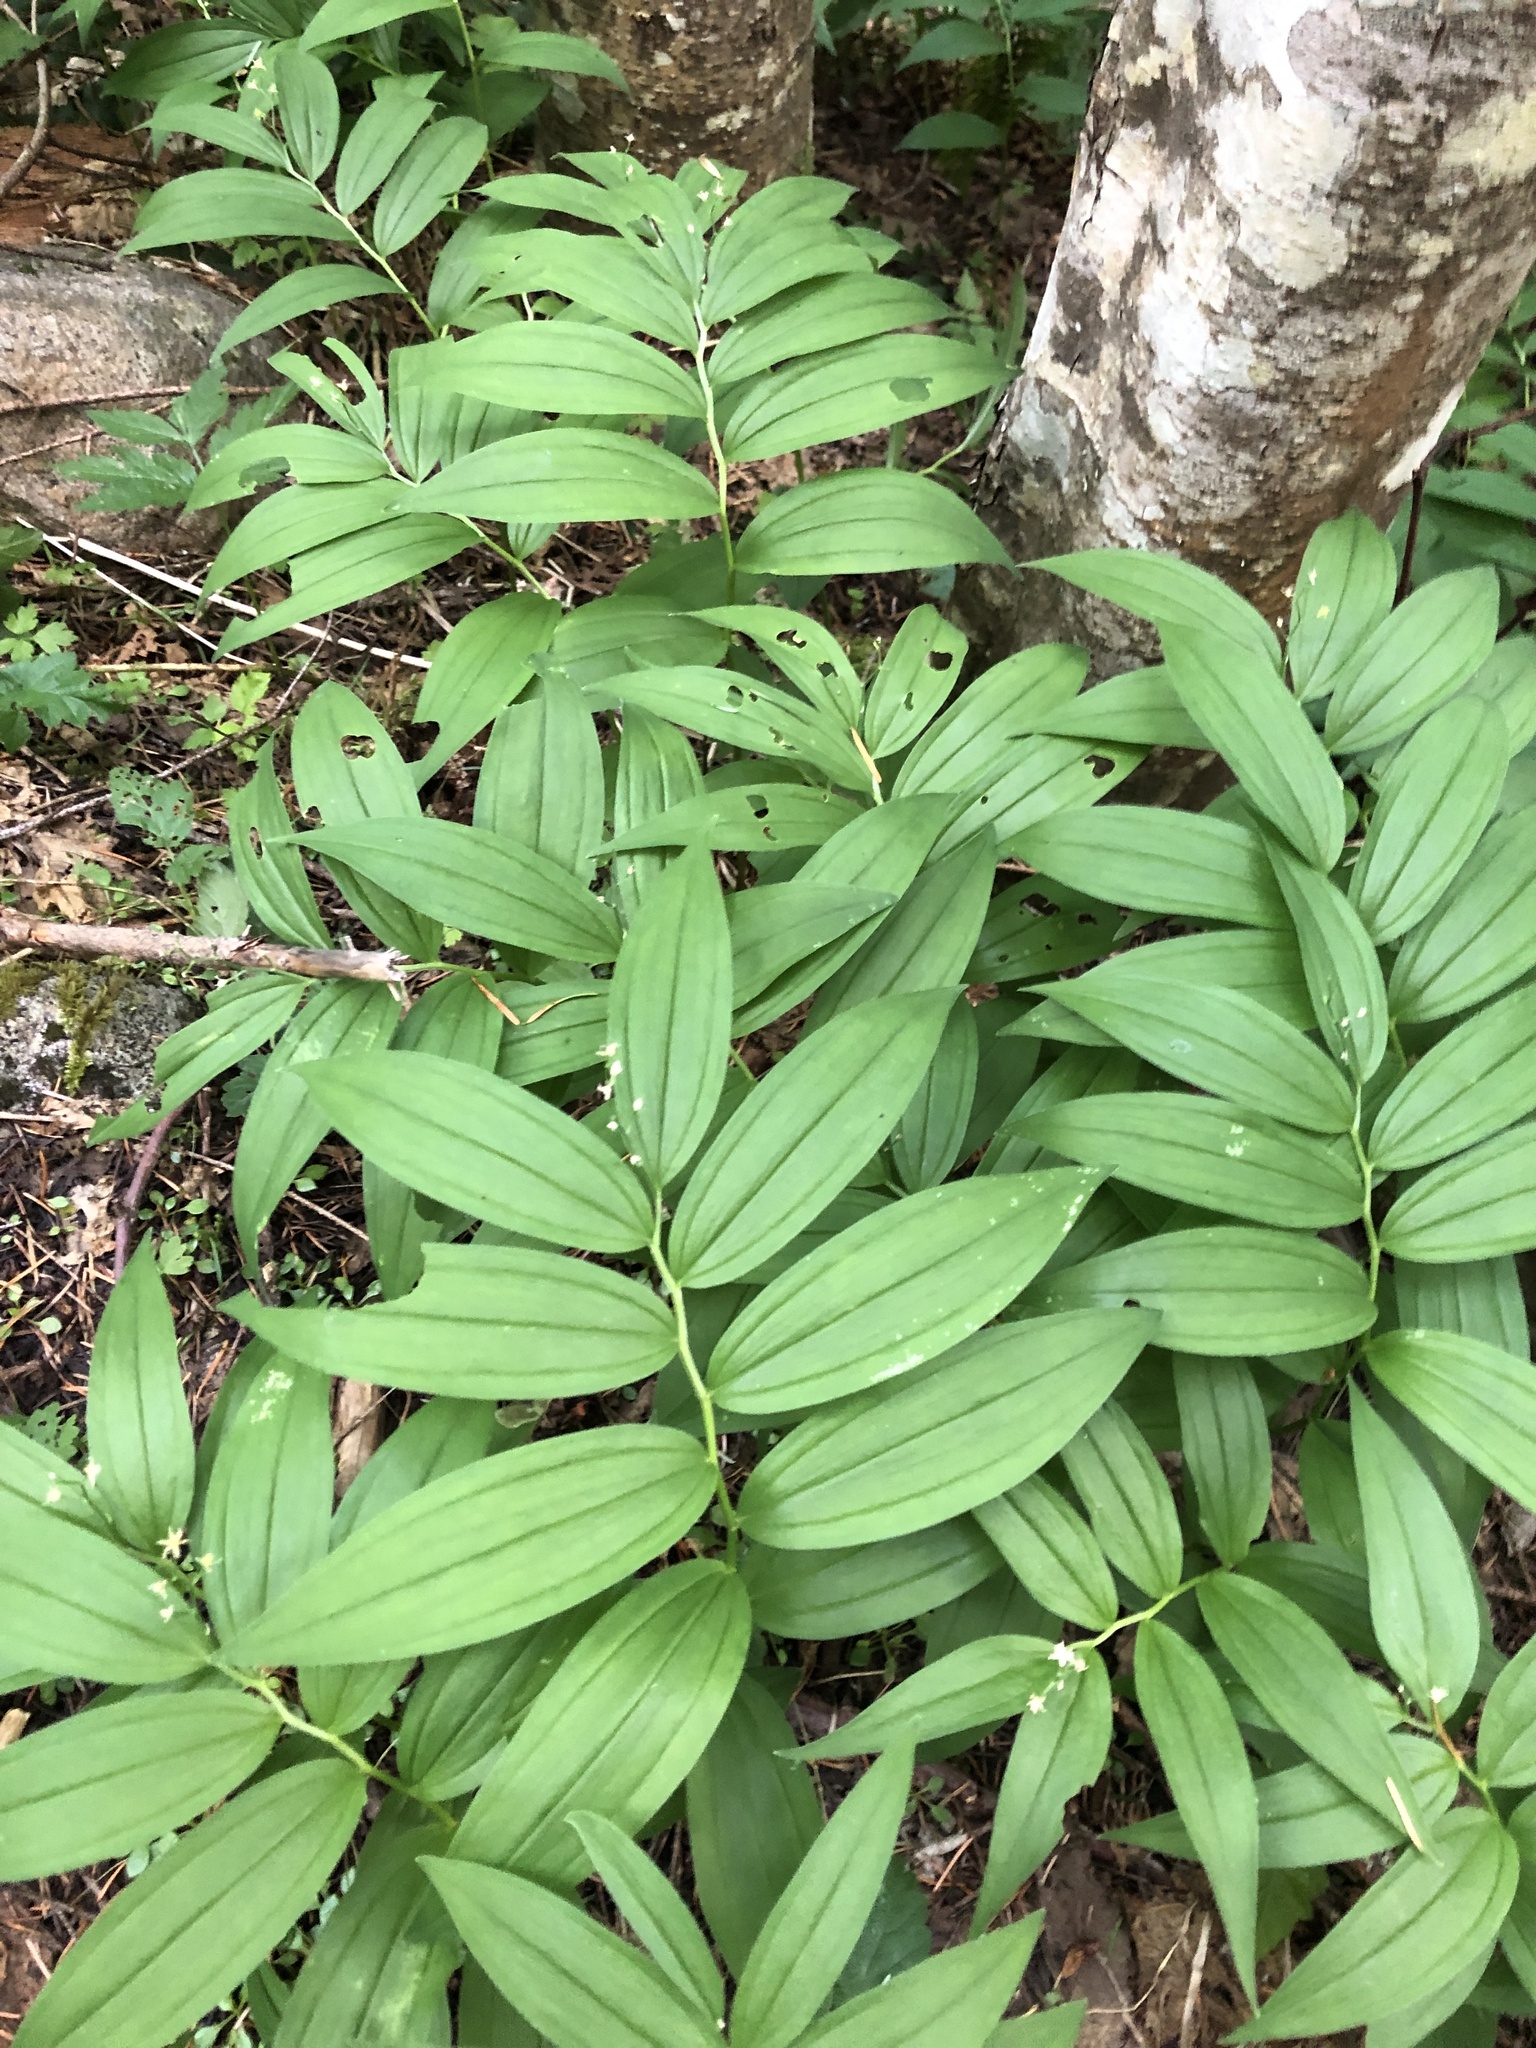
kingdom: Plantae
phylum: Tracheophyta
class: Liliopsida
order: Asparagales
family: Asparagaceae
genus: Maianthemum
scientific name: Maianthemum stellatum
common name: Little false solomon's seal
